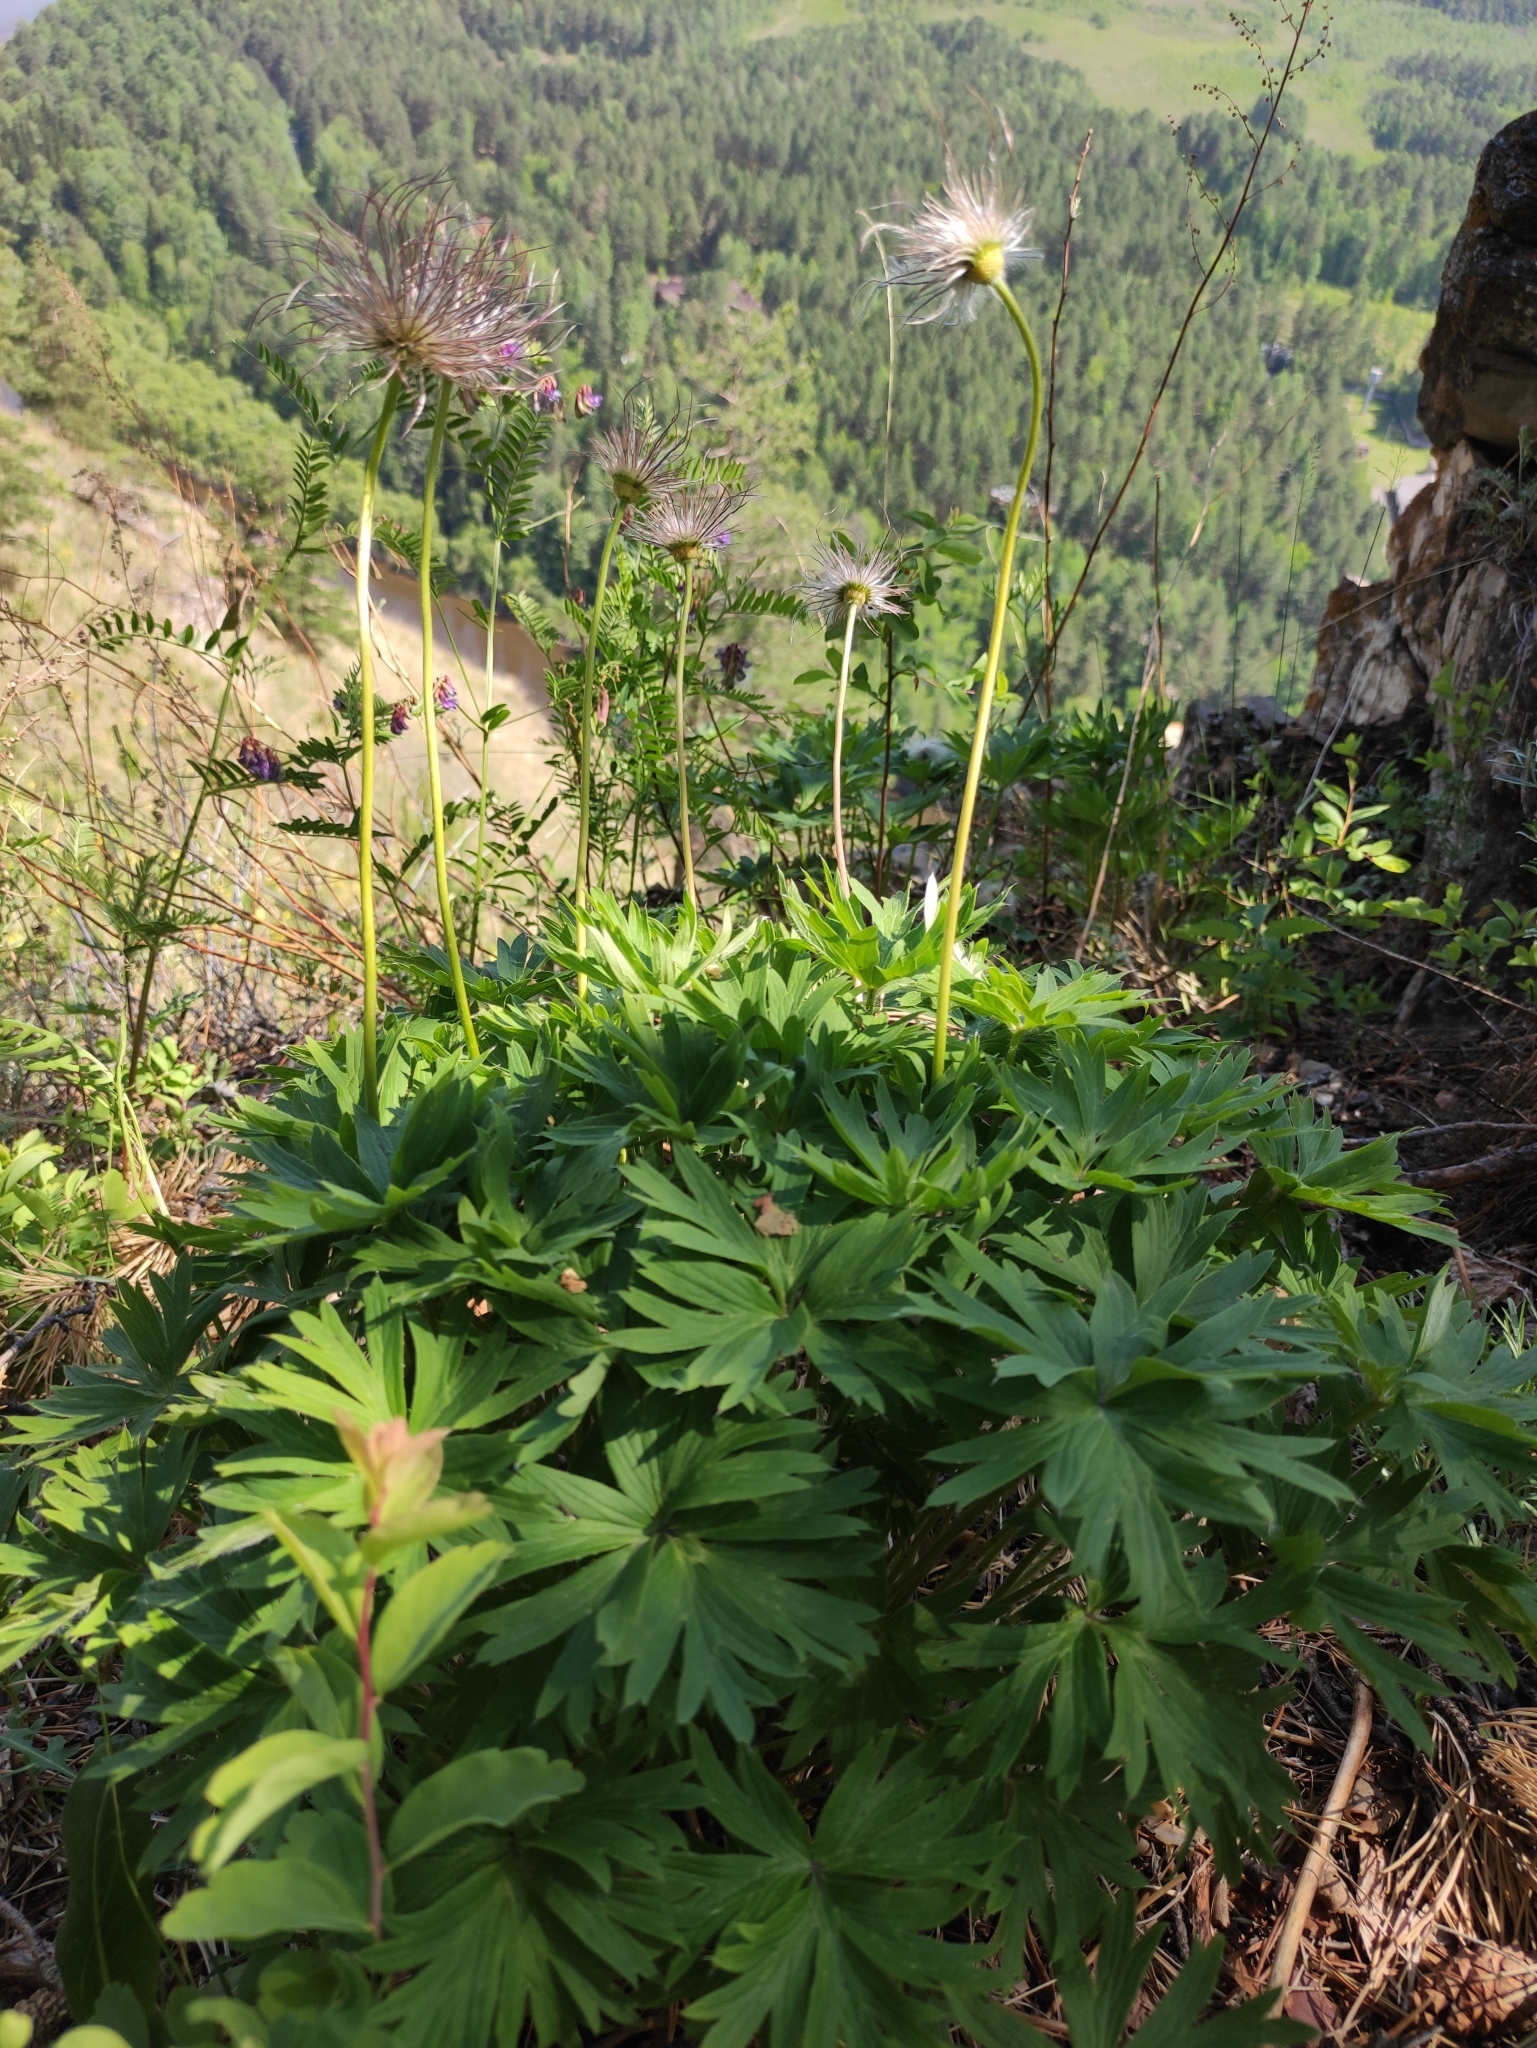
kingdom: Plantae
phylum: Tracheophyta
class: Magnoliopsida
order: Ranunculales
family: Ranunculaceae
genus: Pulsatilla
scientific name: Pulsatilla patens
